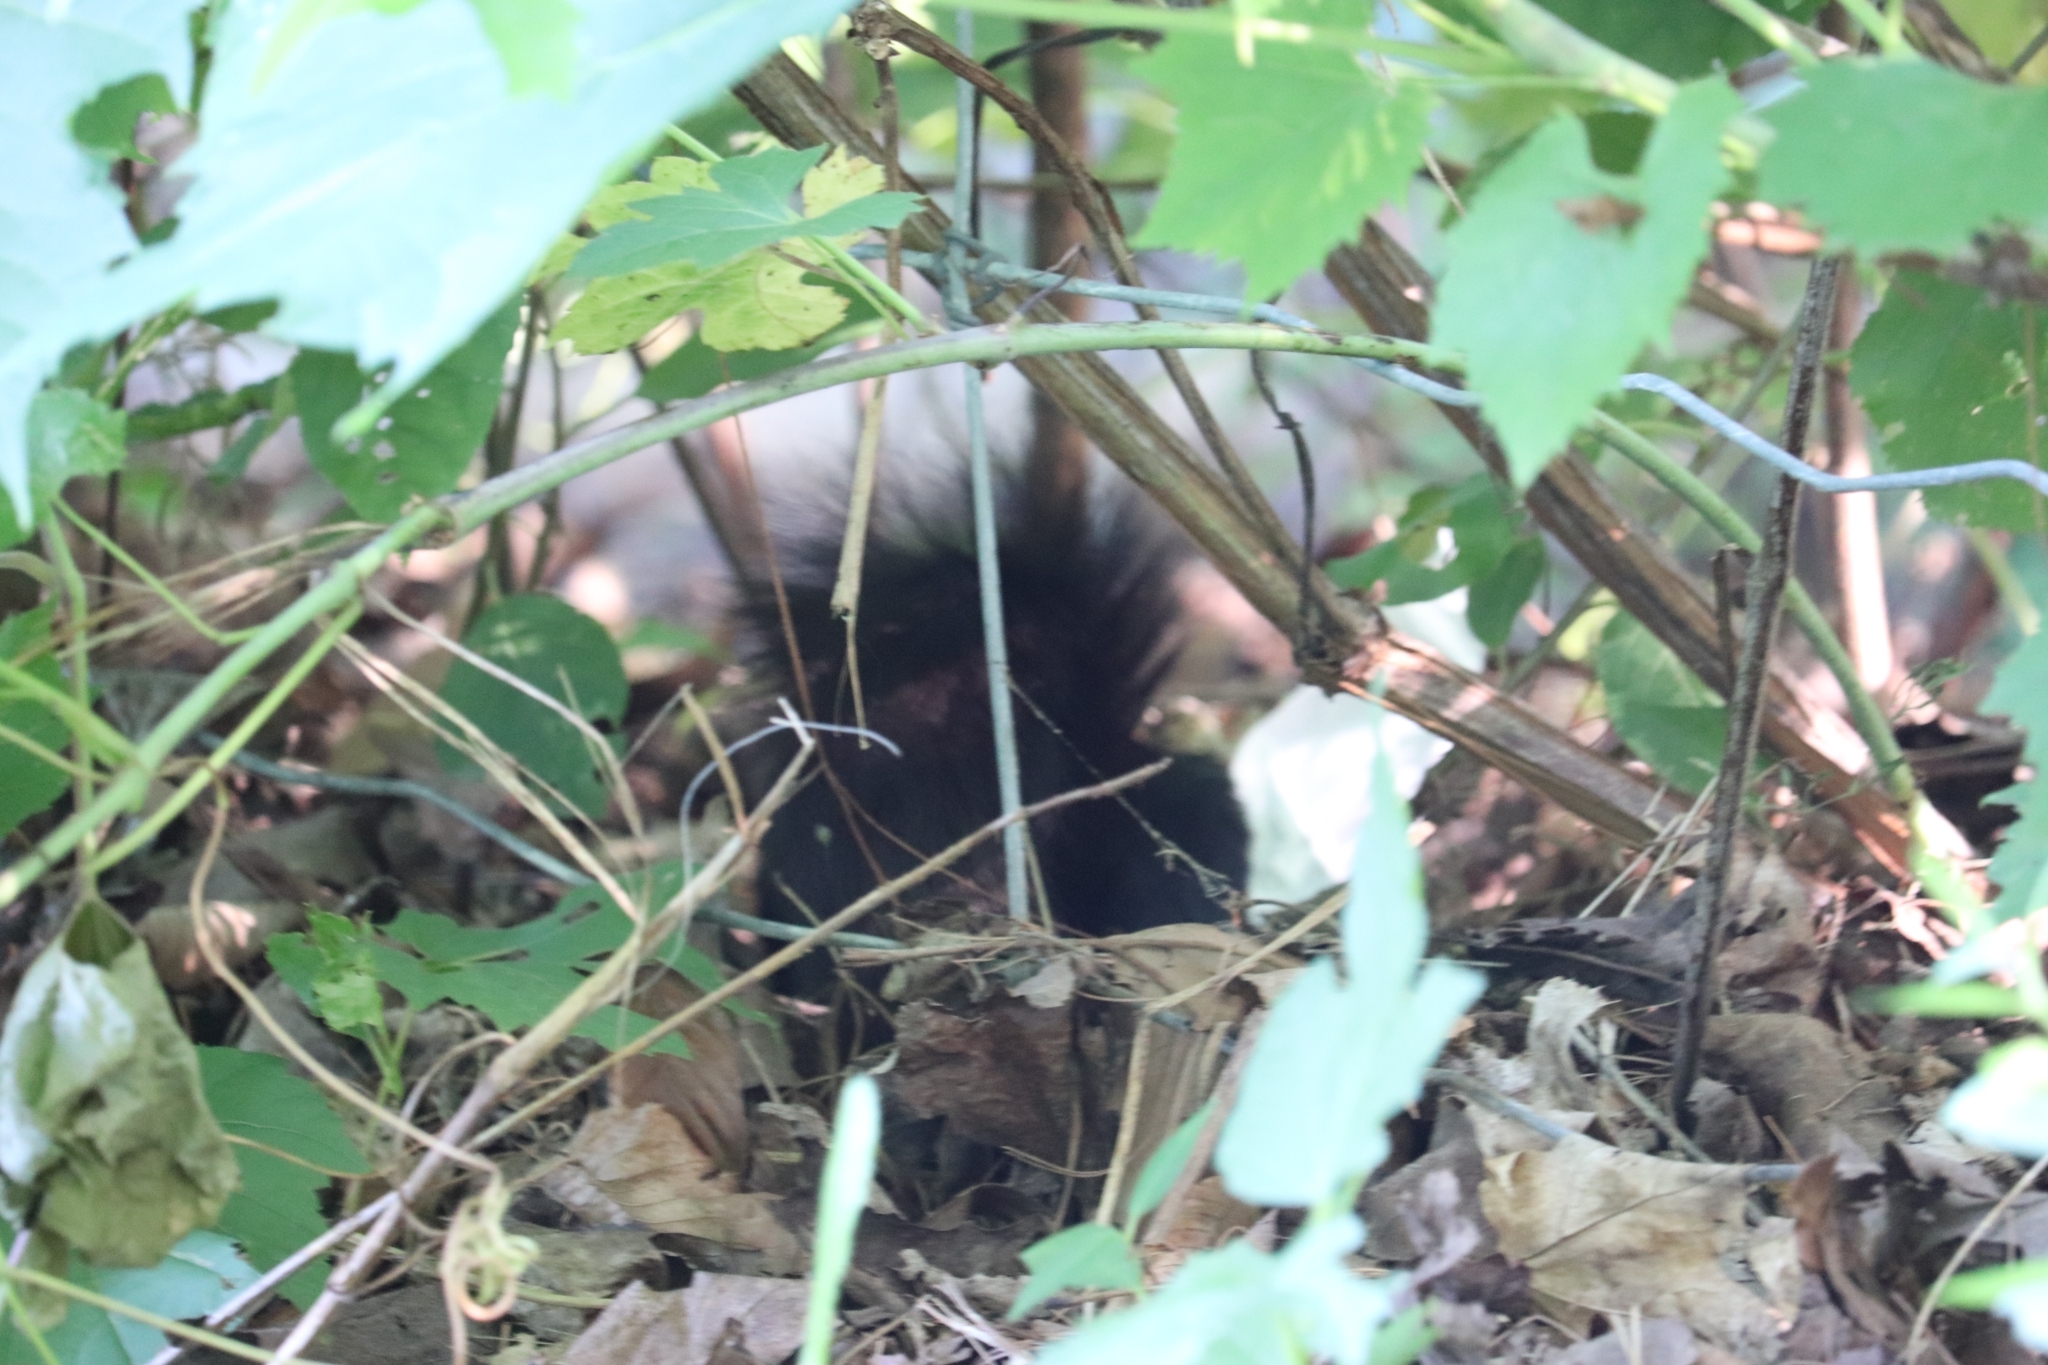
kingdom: Animalia
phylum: Chordata
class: Mammalia
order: Rodentia
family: Sciuridae
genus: Sciurus
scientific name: Sciurus carolinensis
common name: Eastern gray squirrel
